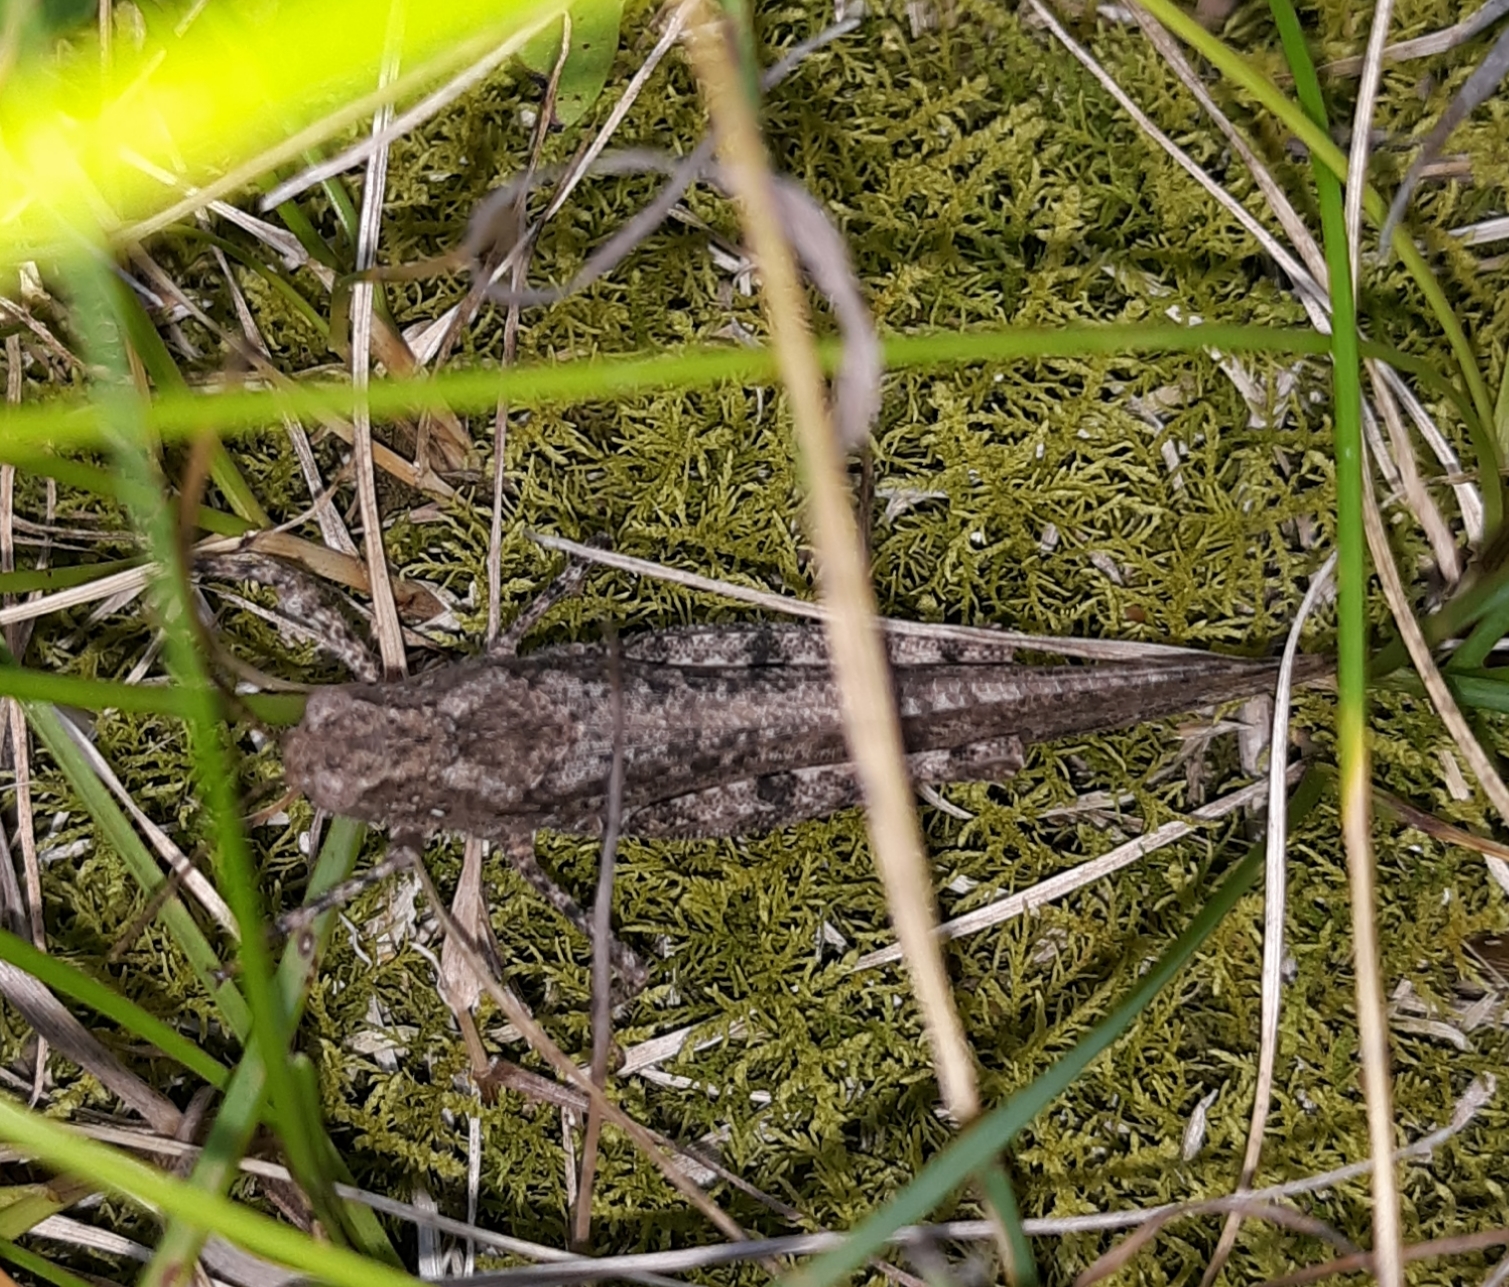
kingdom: Animalia
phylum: Arthropoda
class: Insecta
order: Orthoptera
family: Acrididae
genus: Trimerotropis
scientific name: Trimerotropis verruculata
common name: Crackling forest grasshopper
